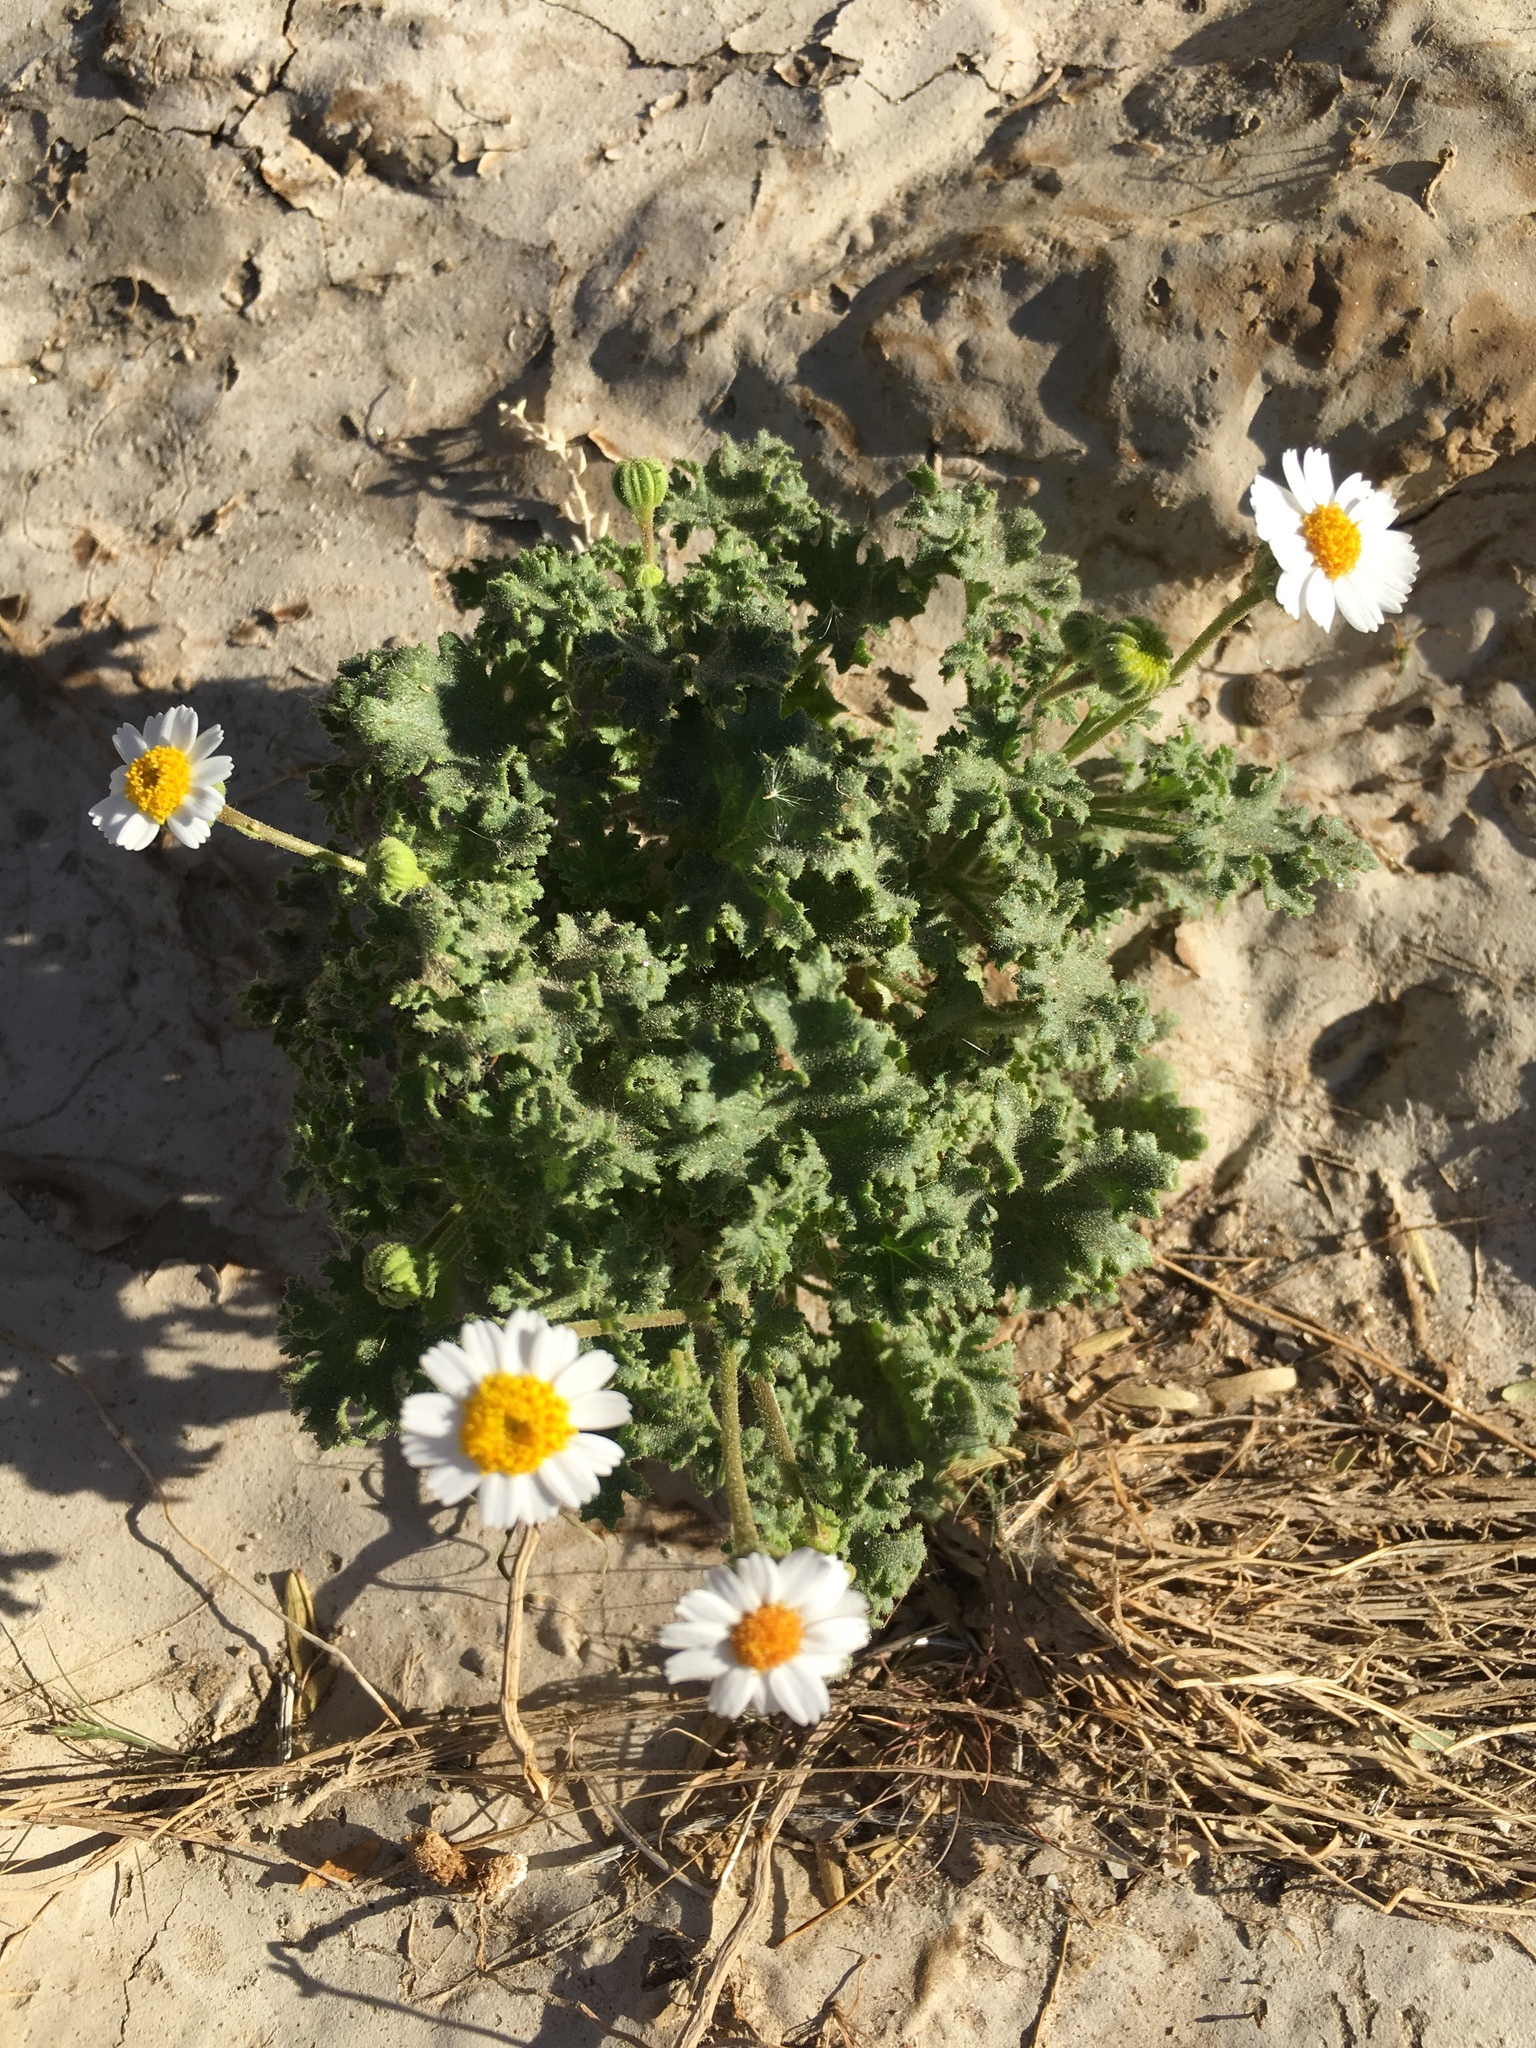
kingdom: Plantae
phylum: Tracheophyta
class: Magnoliopsida
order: Asterales
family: Asteraceae
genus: Laphamia
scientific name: Laphamia emoryi
